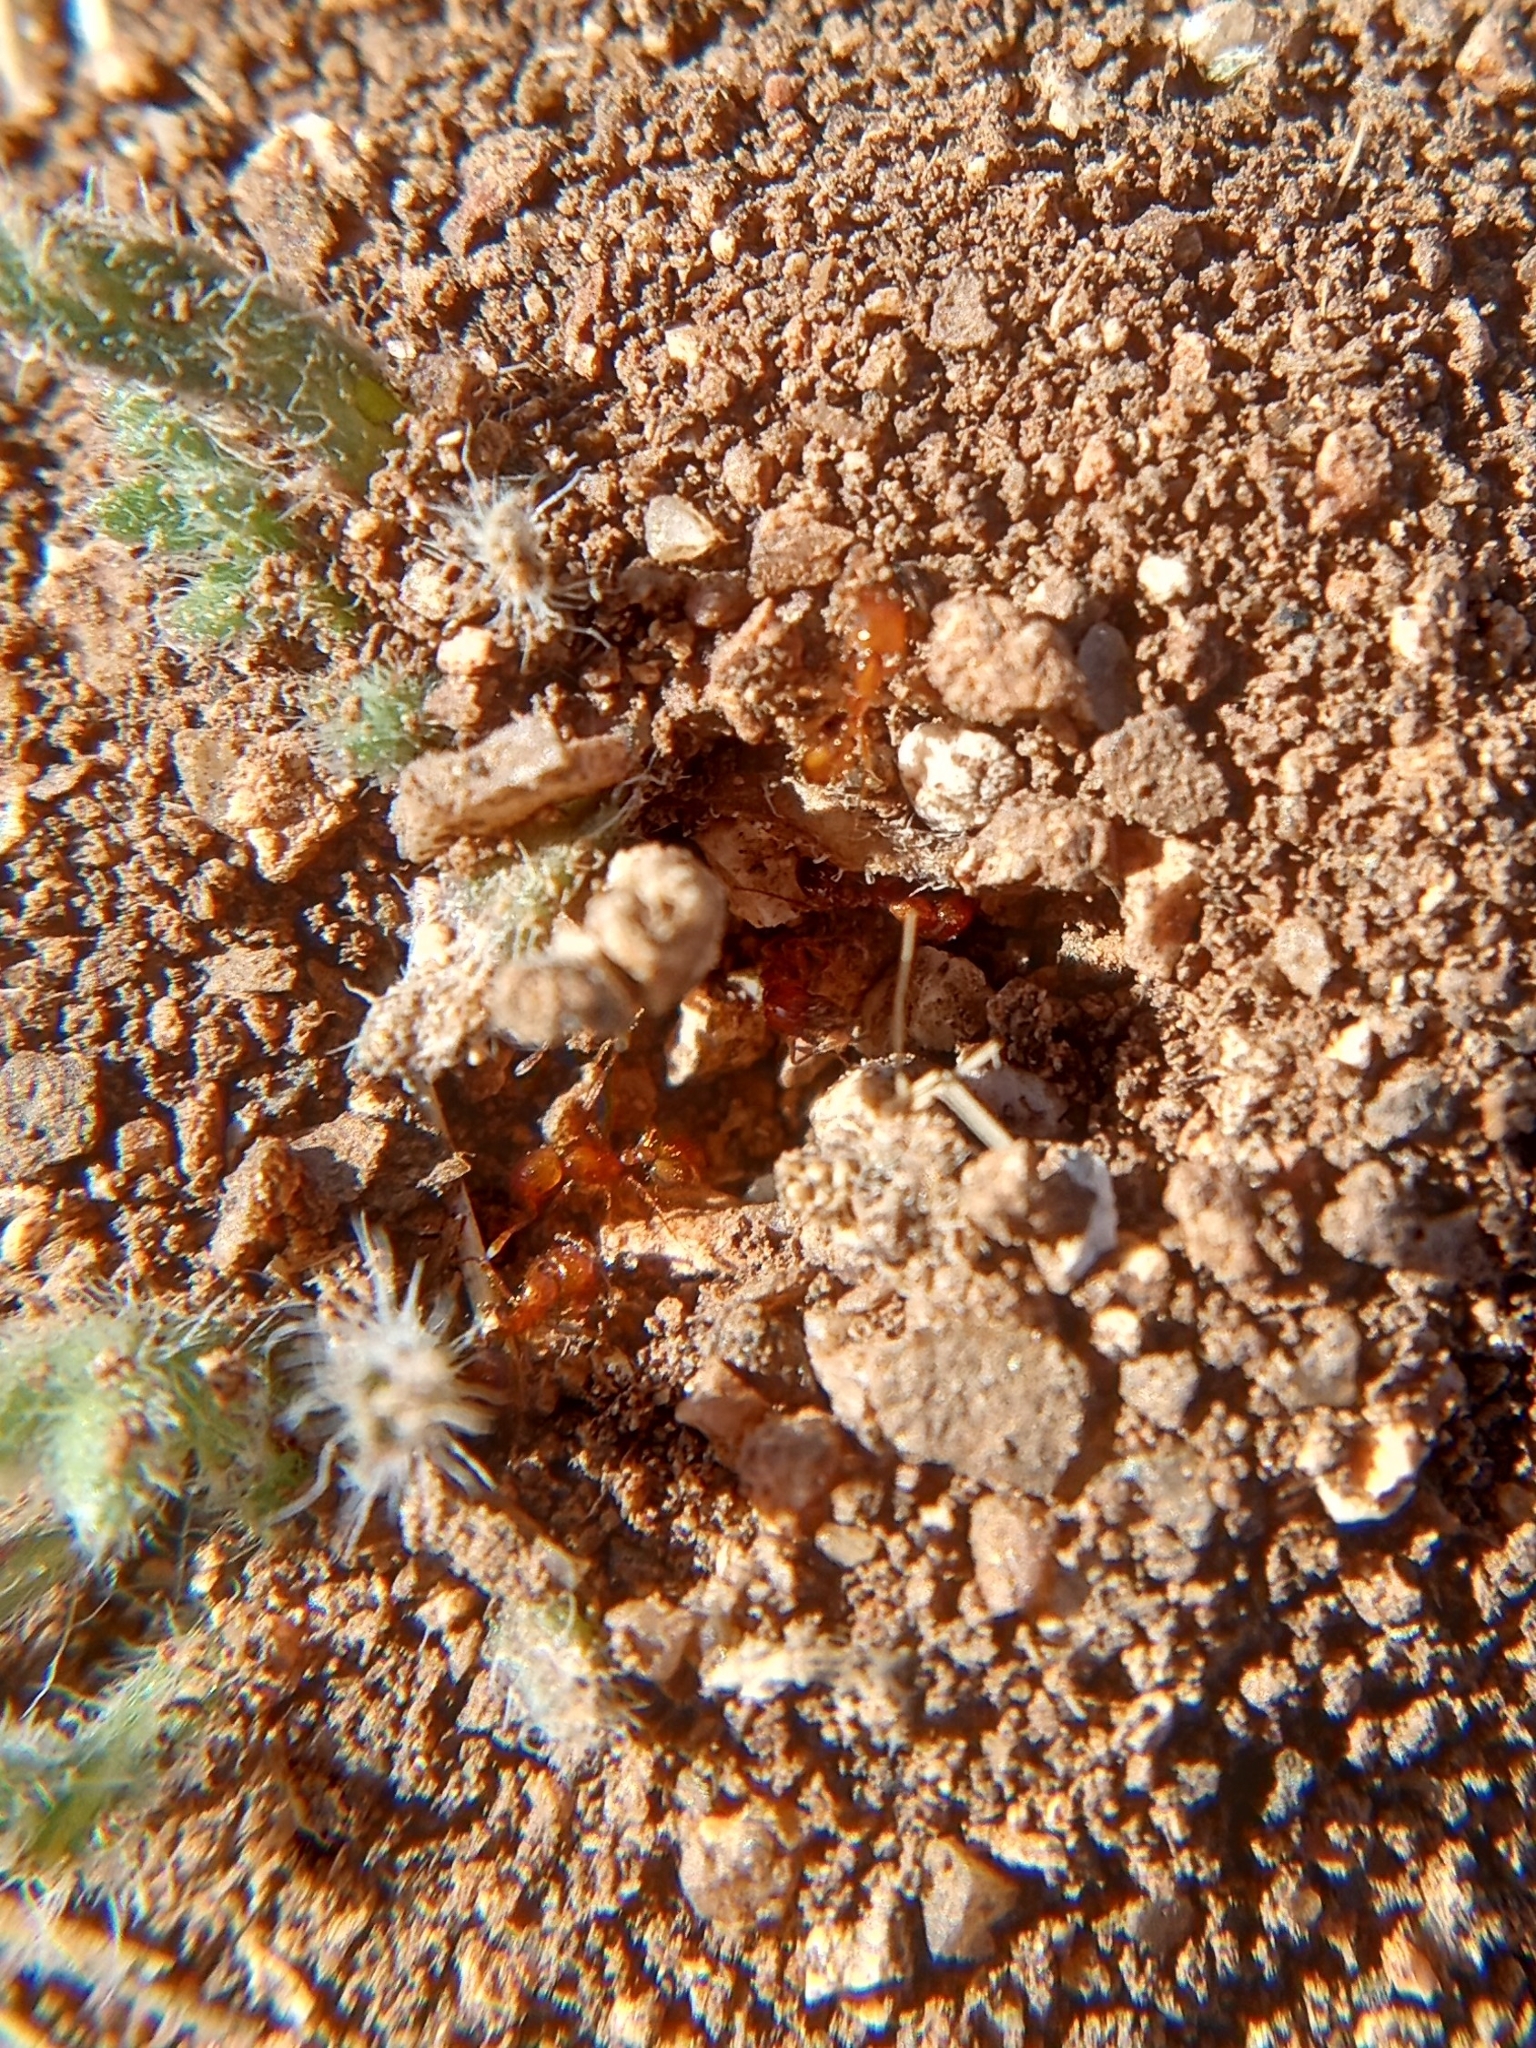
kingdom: Animalia
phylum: Arthropoda
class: Insecta
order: Hymenoptera
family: Formicidae
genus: Solenopsis
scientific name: Solenopsis aurea
